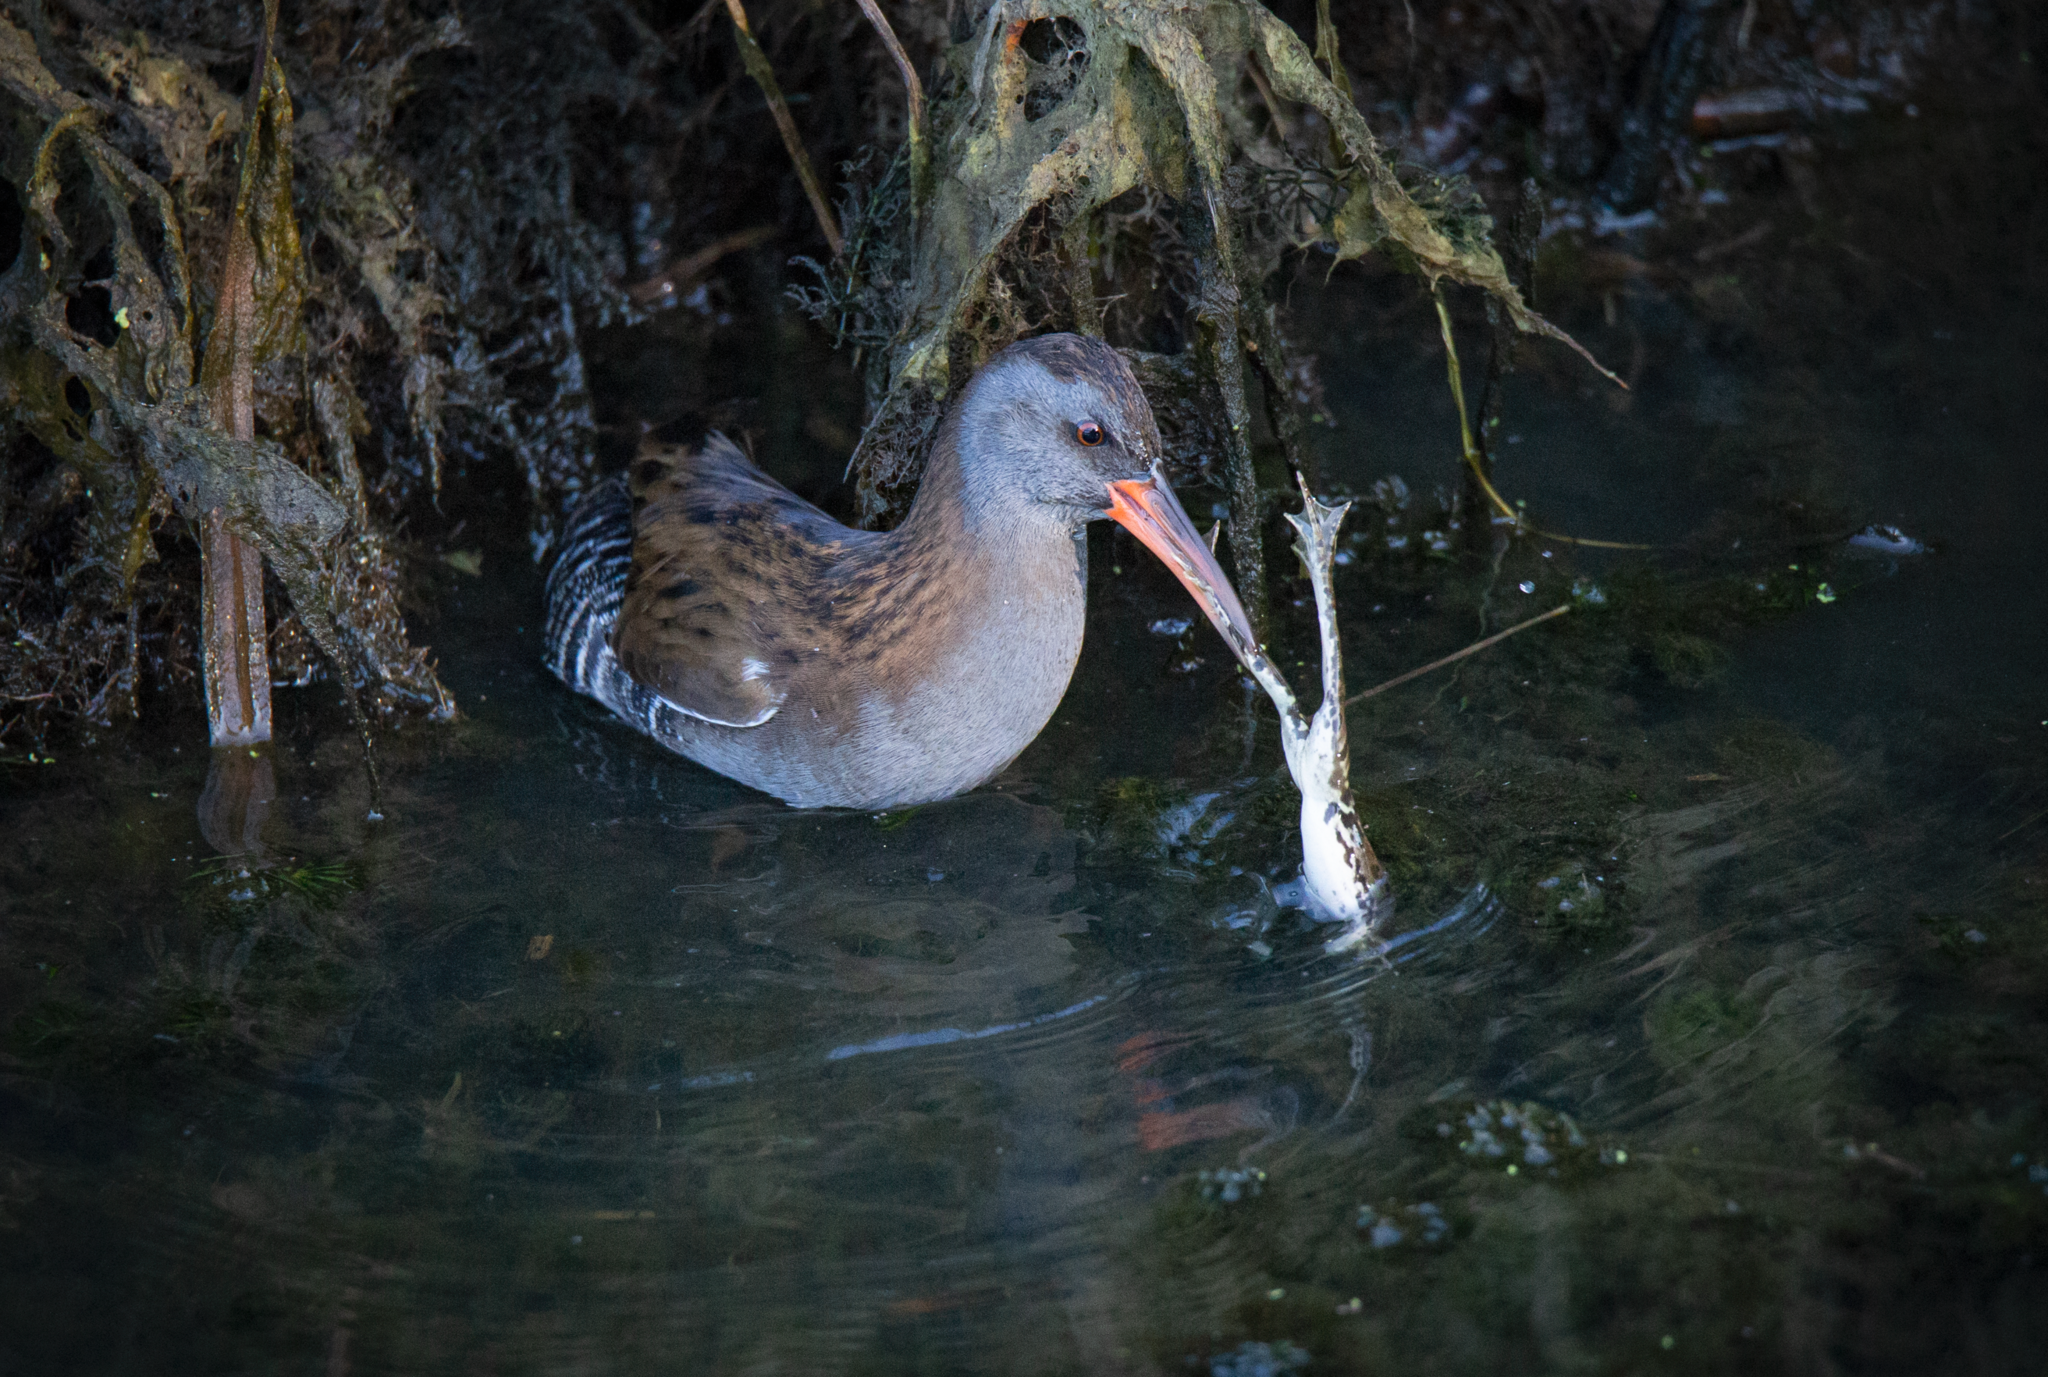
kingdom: Animalia
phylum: Chordata
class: Aves
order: Gruiformes
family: Rallidae
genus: Rallus
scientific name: Rallus aquaticus
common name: Water rail
